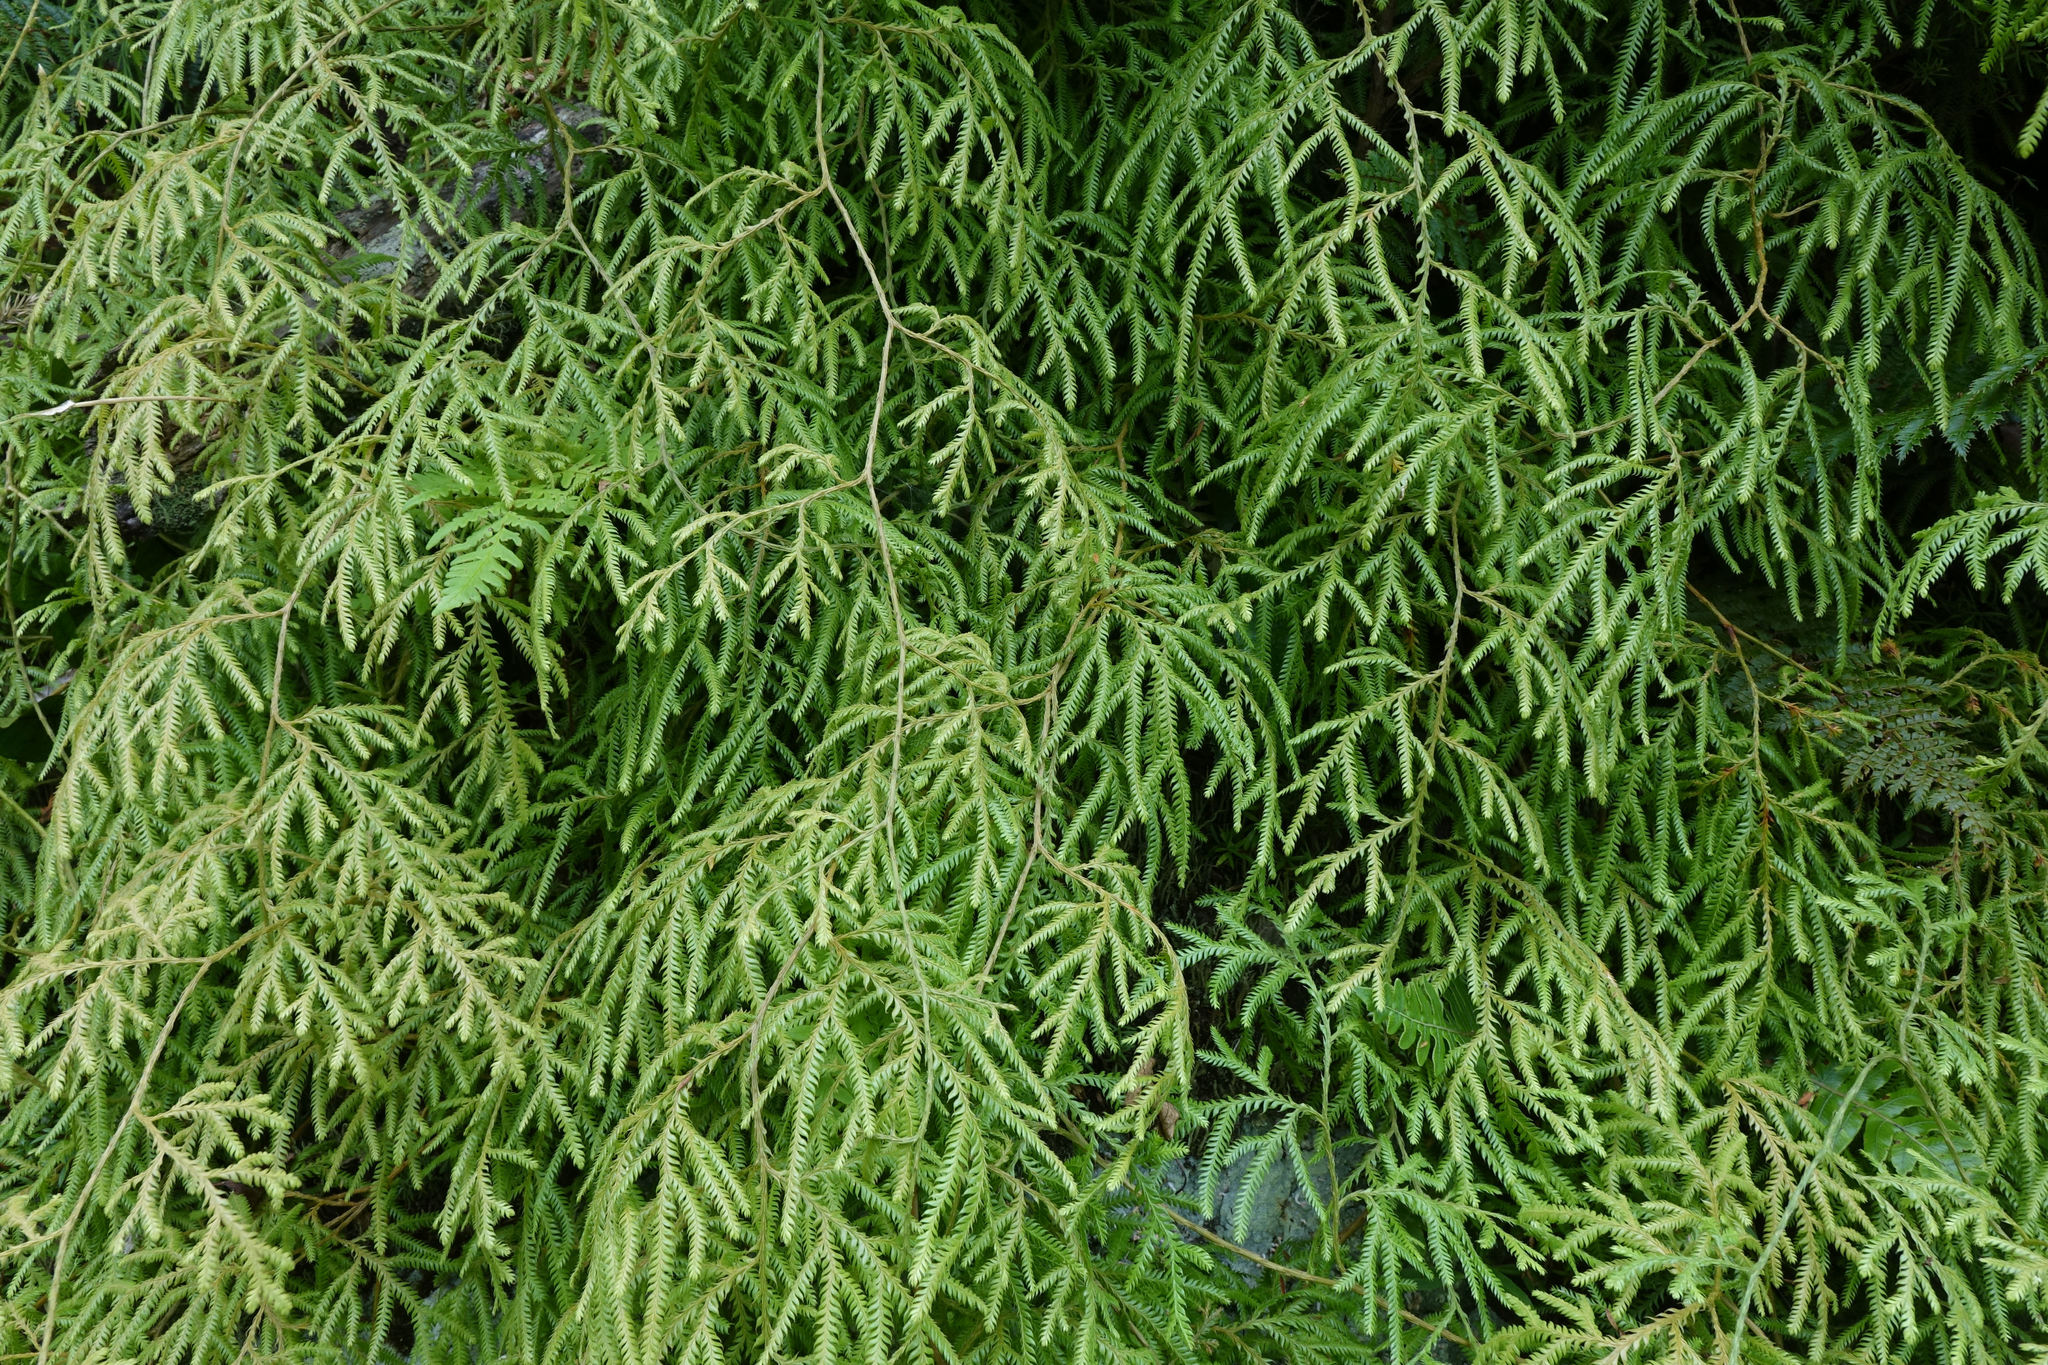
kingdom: Plantae
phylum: Tracheophyta
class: Lycopodiopsida
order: Lycopodiales
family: Lycopodiaceae
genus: Lycopodium
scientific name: Lycopodium volubile
